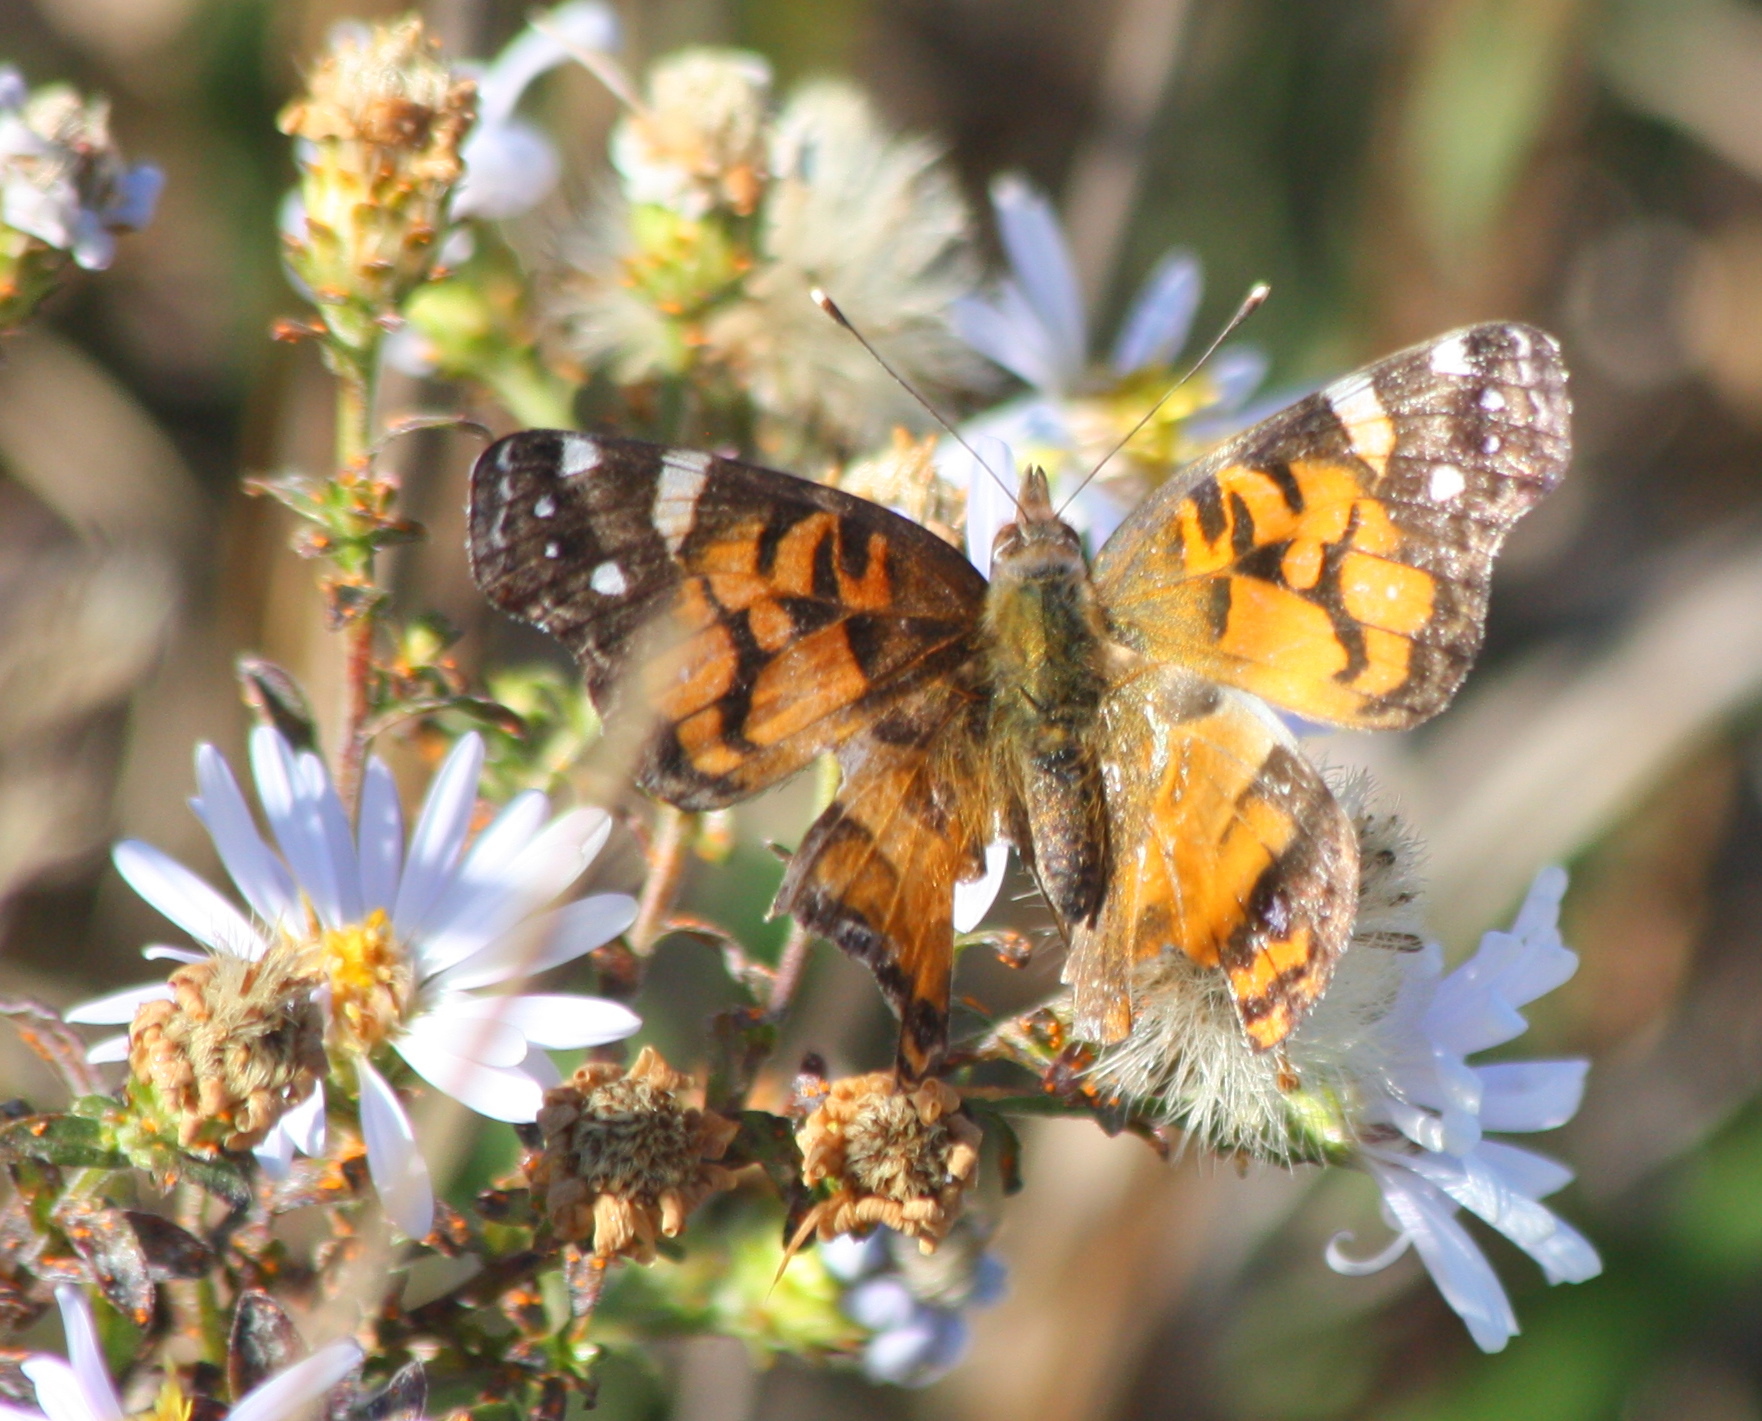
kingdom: Animalia
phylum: Arthropoda
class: Insecta
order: Lepidoptera
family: Nymphalidae
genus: Vanessa
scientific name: Vanessa virginiensis
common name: American lady
